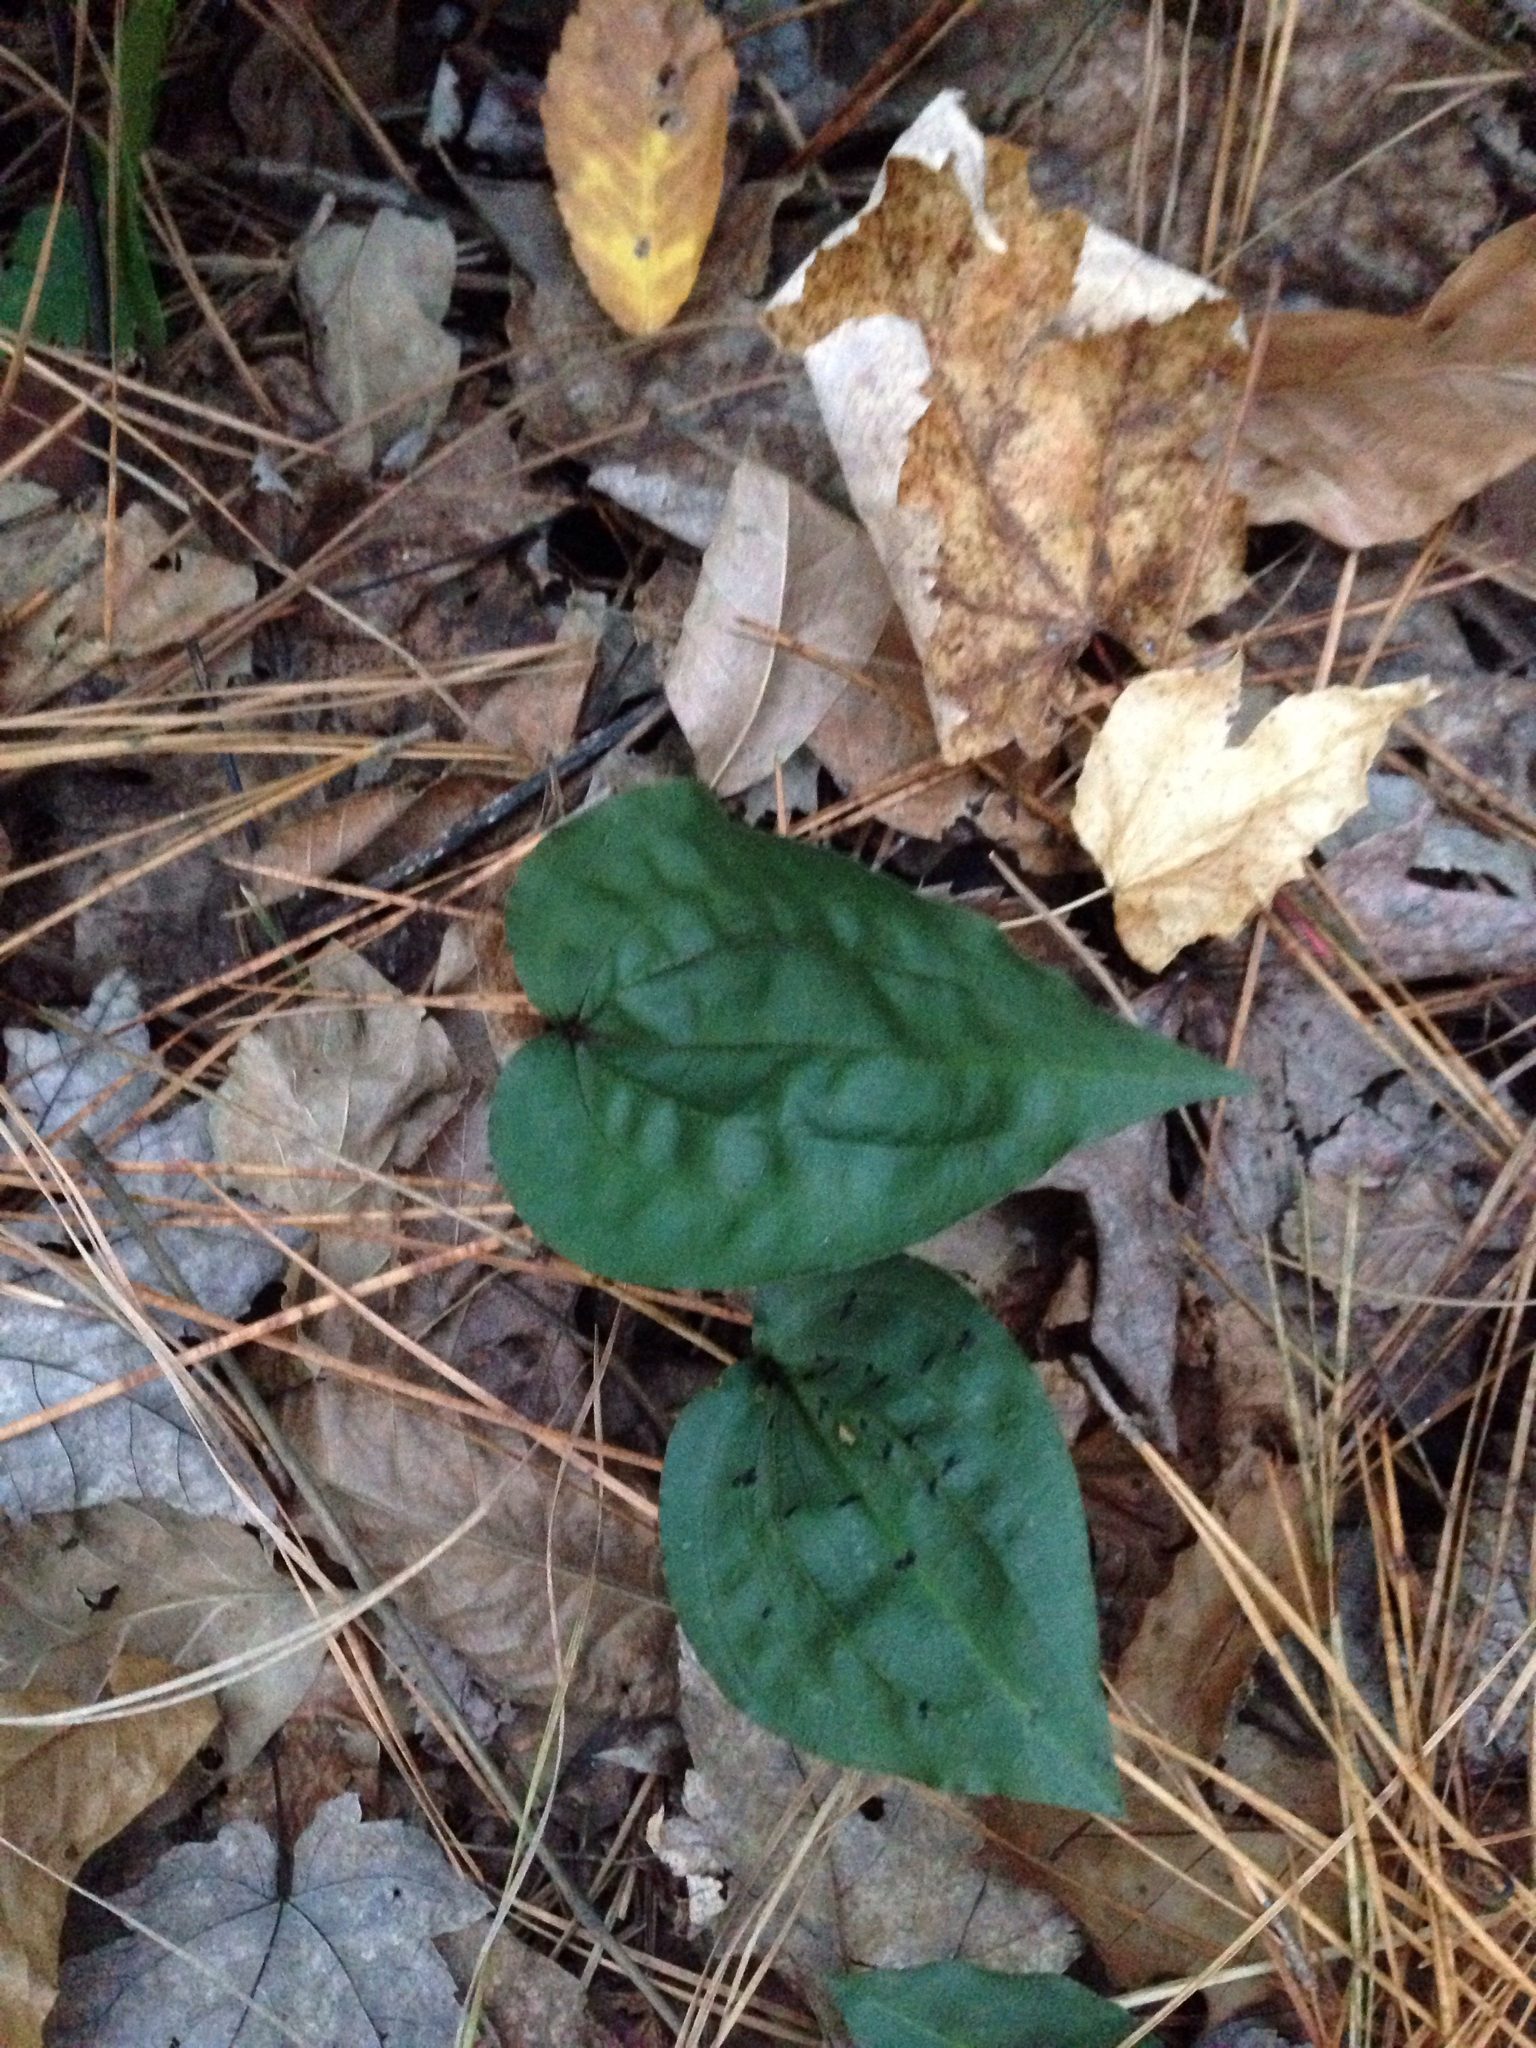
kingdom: Plantae
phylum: Tracheophyta
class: Liliopsida
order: Asparagales
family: Orchidaceae
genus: Tipularia
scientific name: Tipularia discolor
